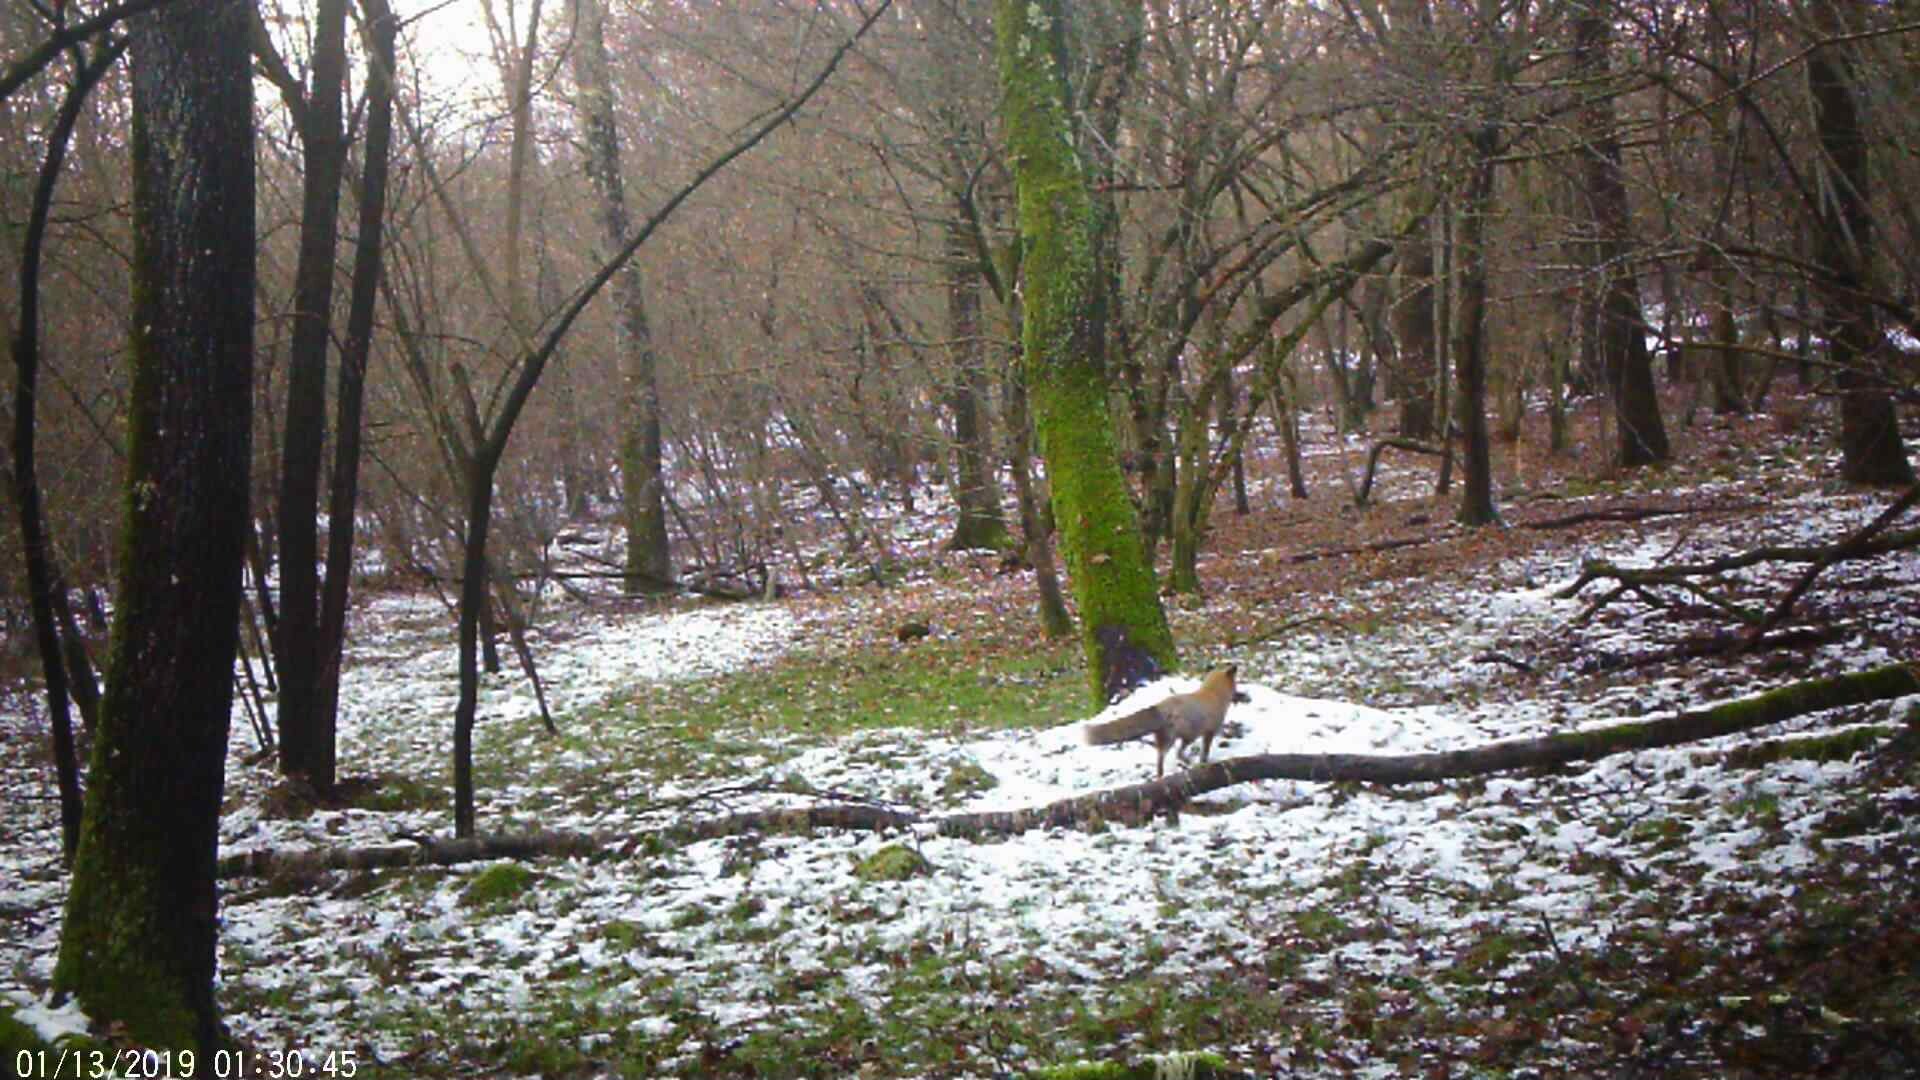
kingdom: Animalia
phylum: Chordata
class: Mammalia
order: Carnivora
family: Canidae
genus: Vulpes
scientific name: Vulpes vulpes
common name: Red fox
